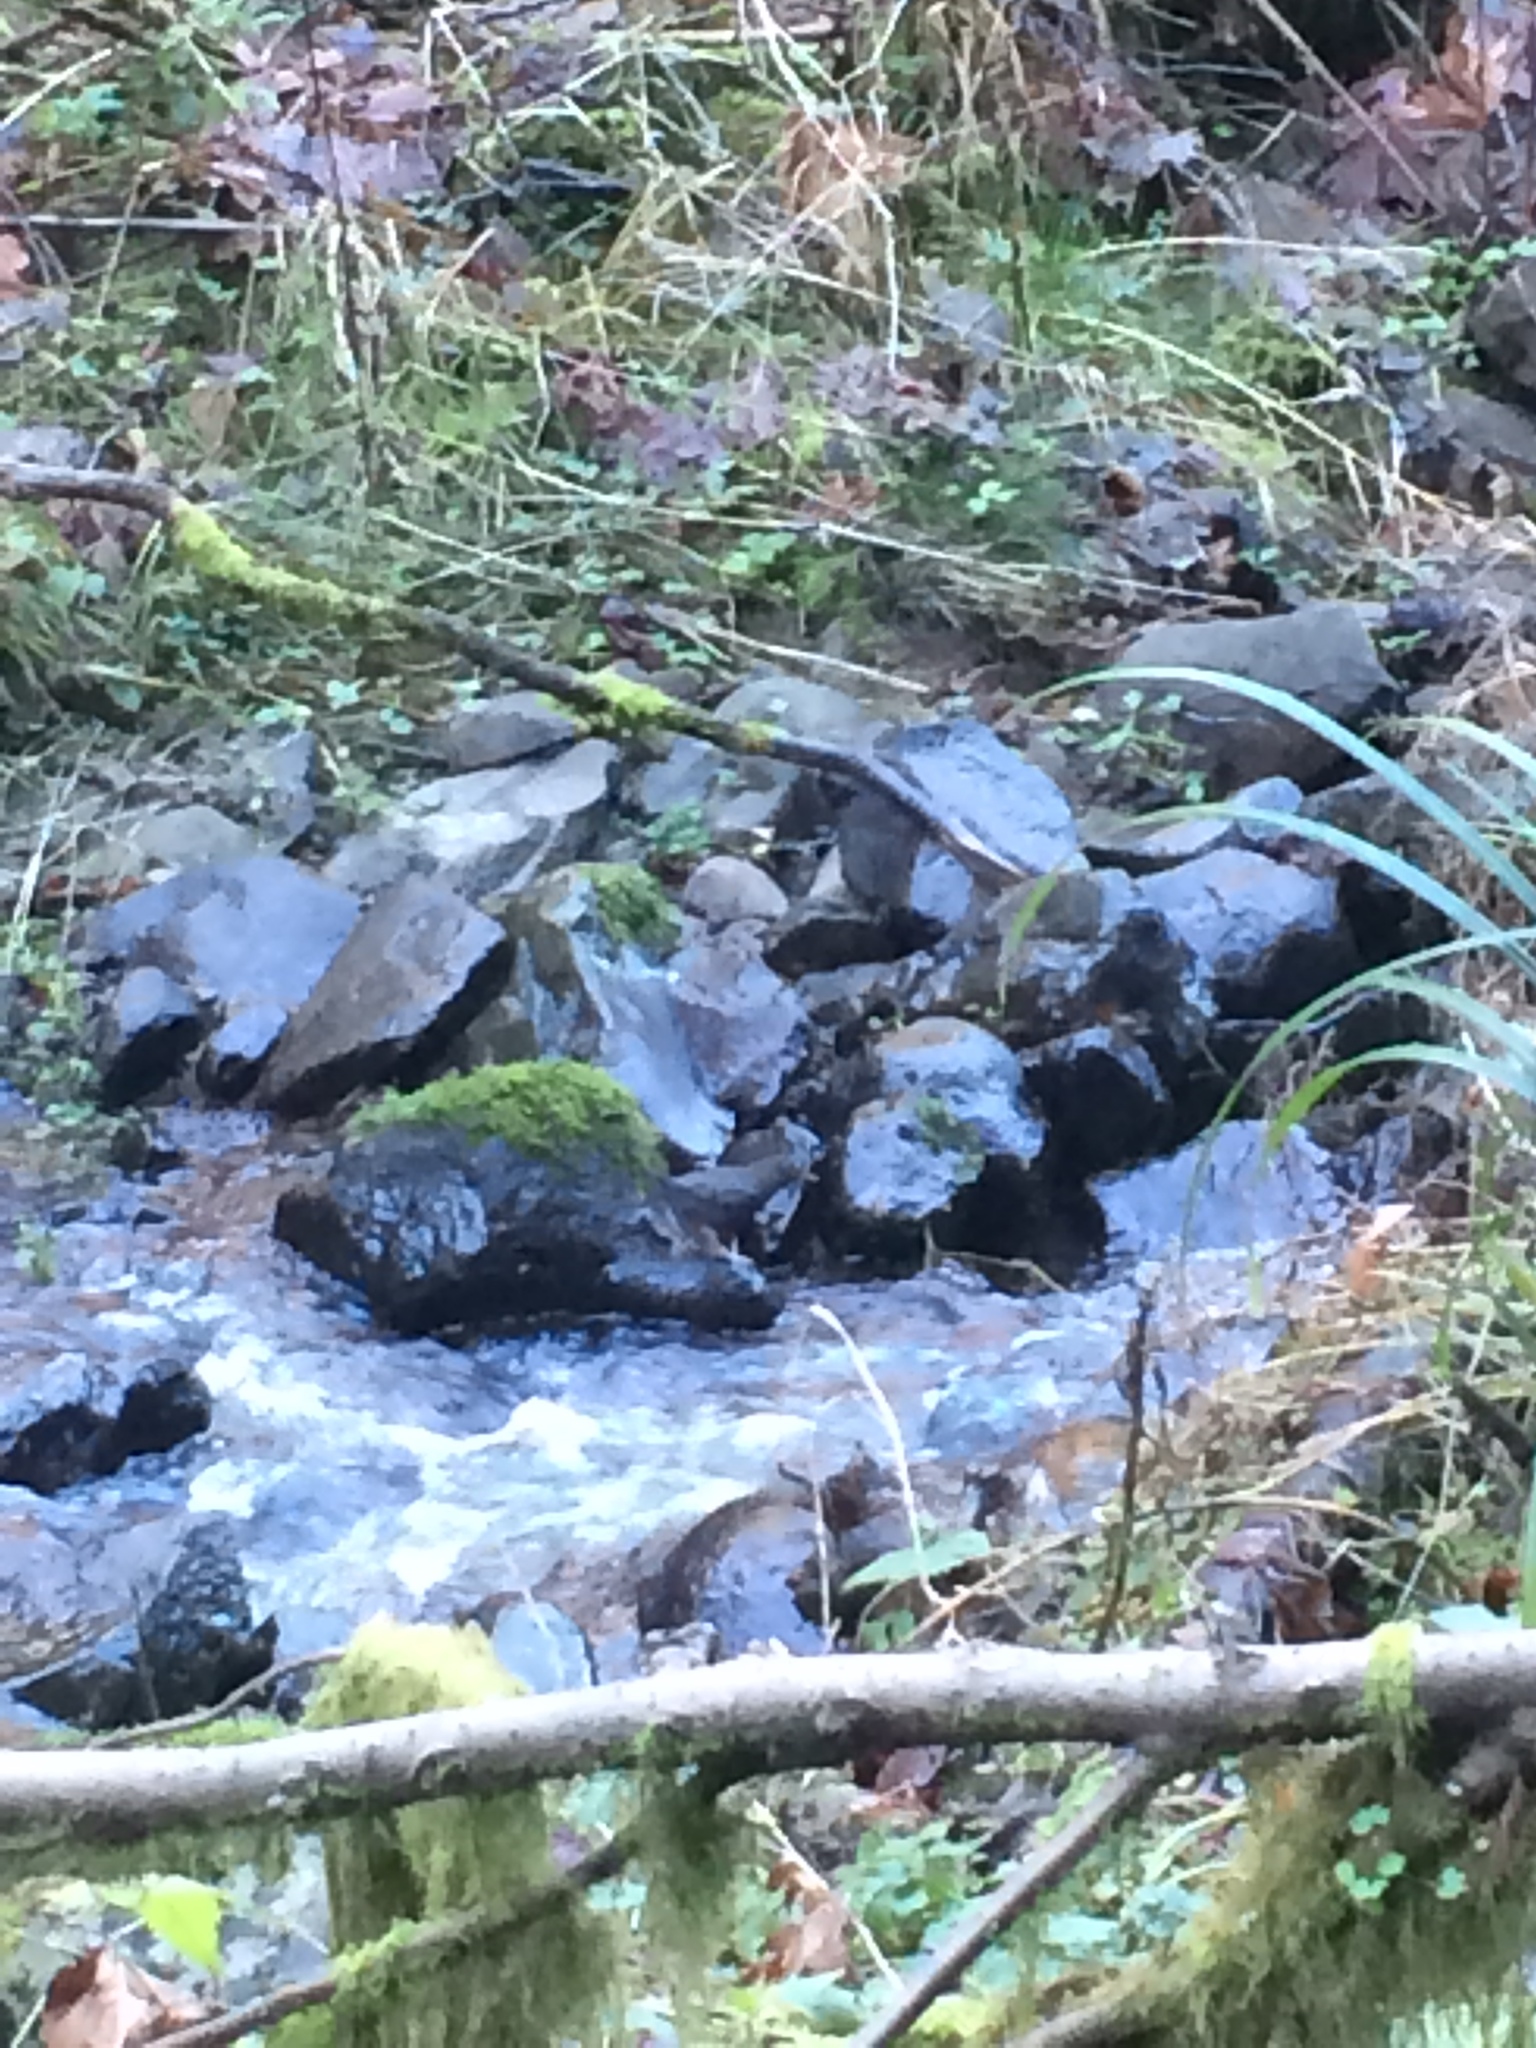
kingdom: Animalia
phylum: Chordata
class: Aves
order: Passeriformes
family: Cinclidae
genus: Cinclus
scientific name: Cinclus mexicanus
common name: American dipper
